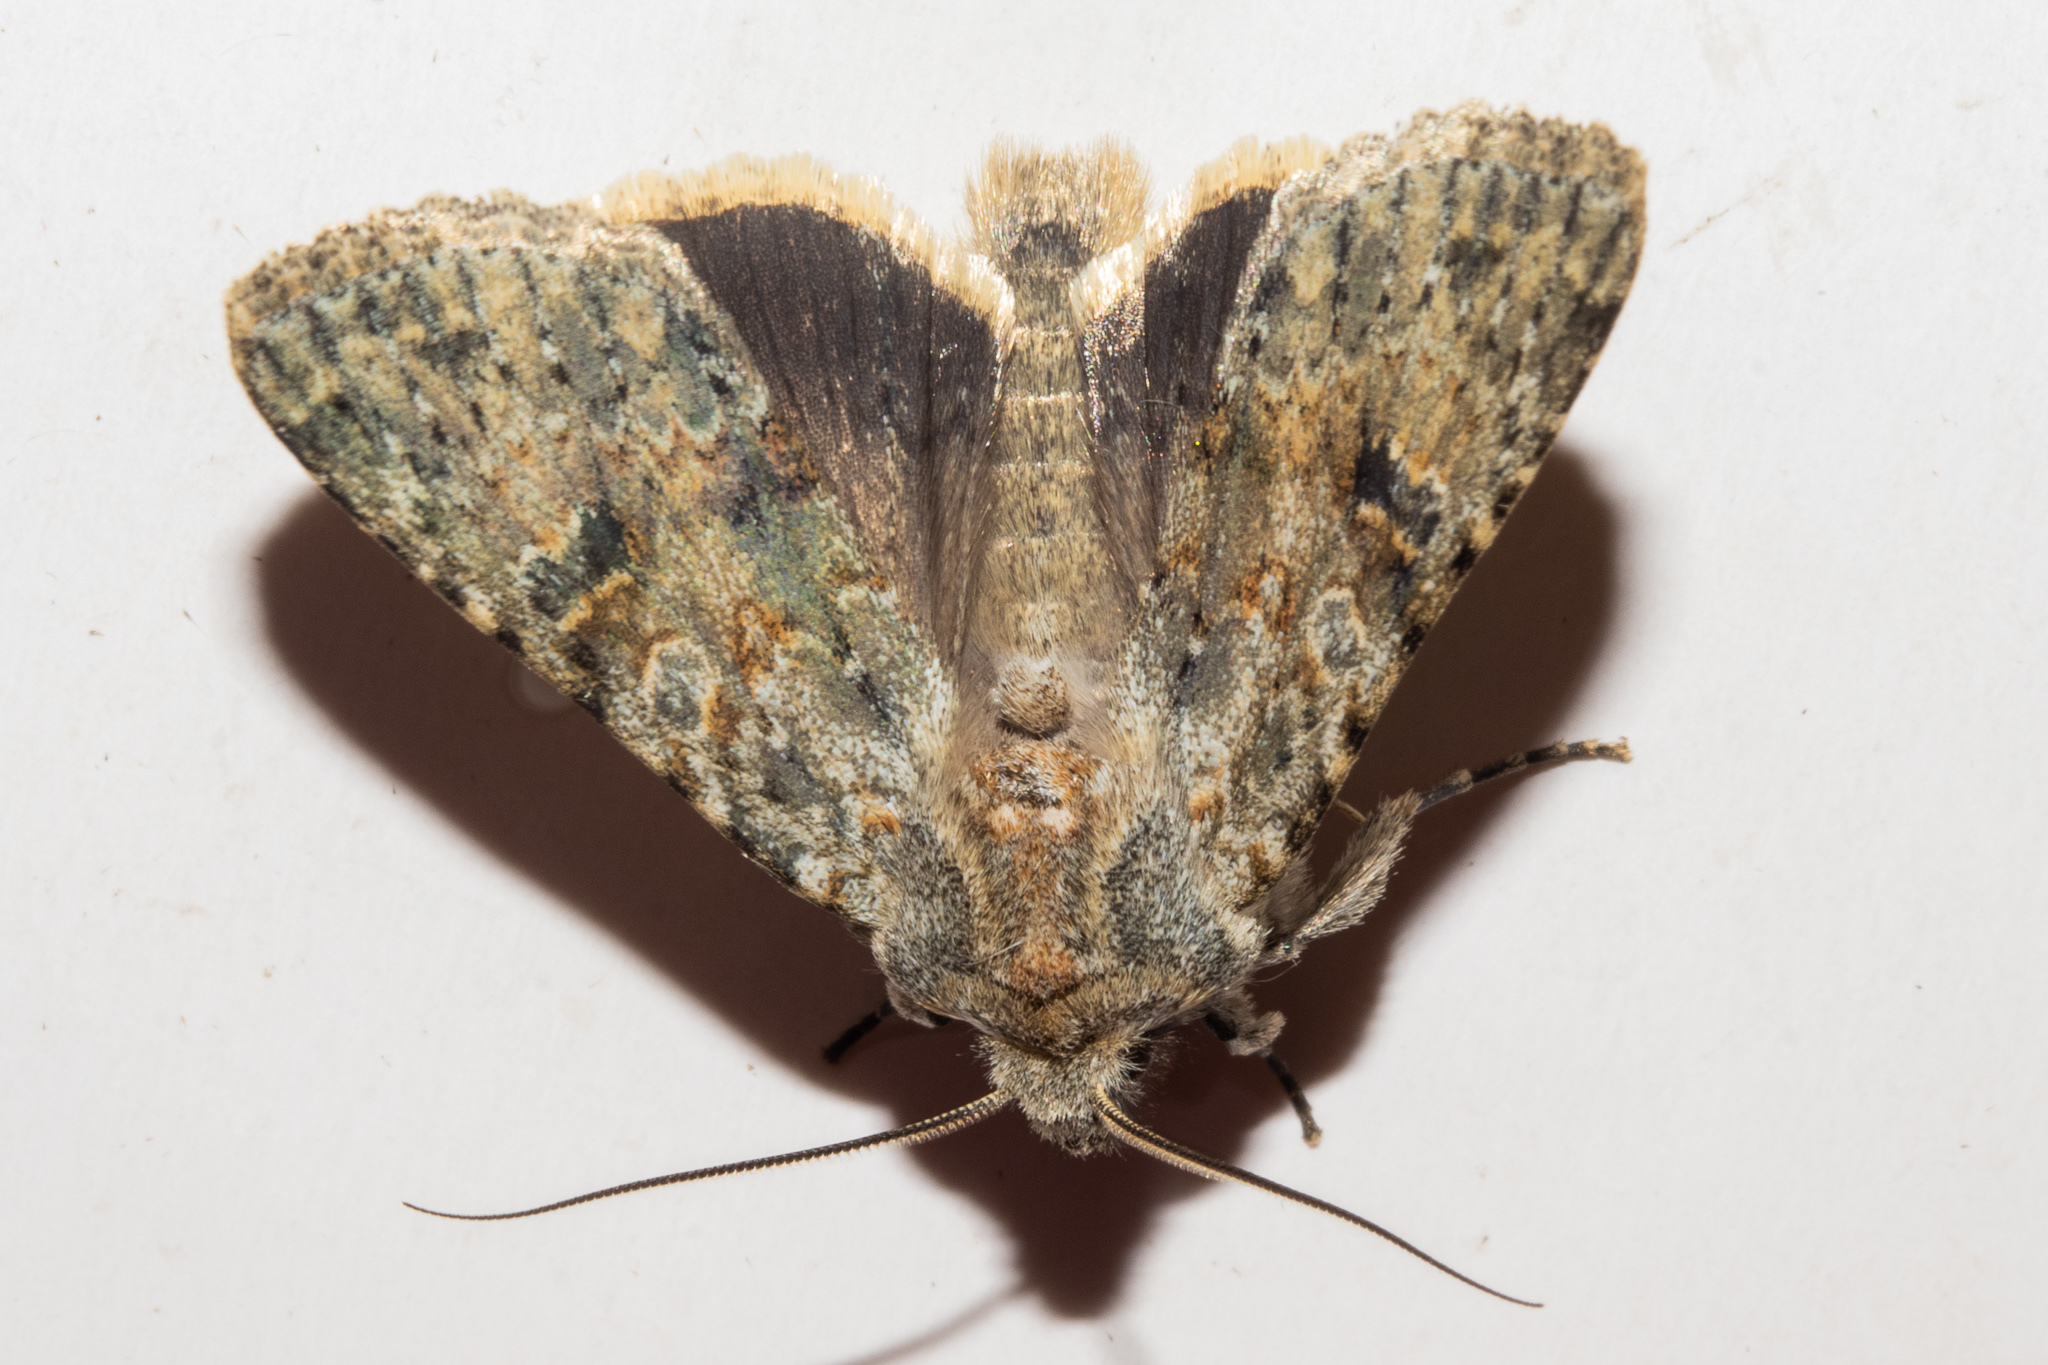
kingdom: Animalia
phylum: Arthropoda
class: Insecta
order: Lepidoptera
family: Noctuidae
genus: Ichneutica
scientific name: Ichneutica cuneata
